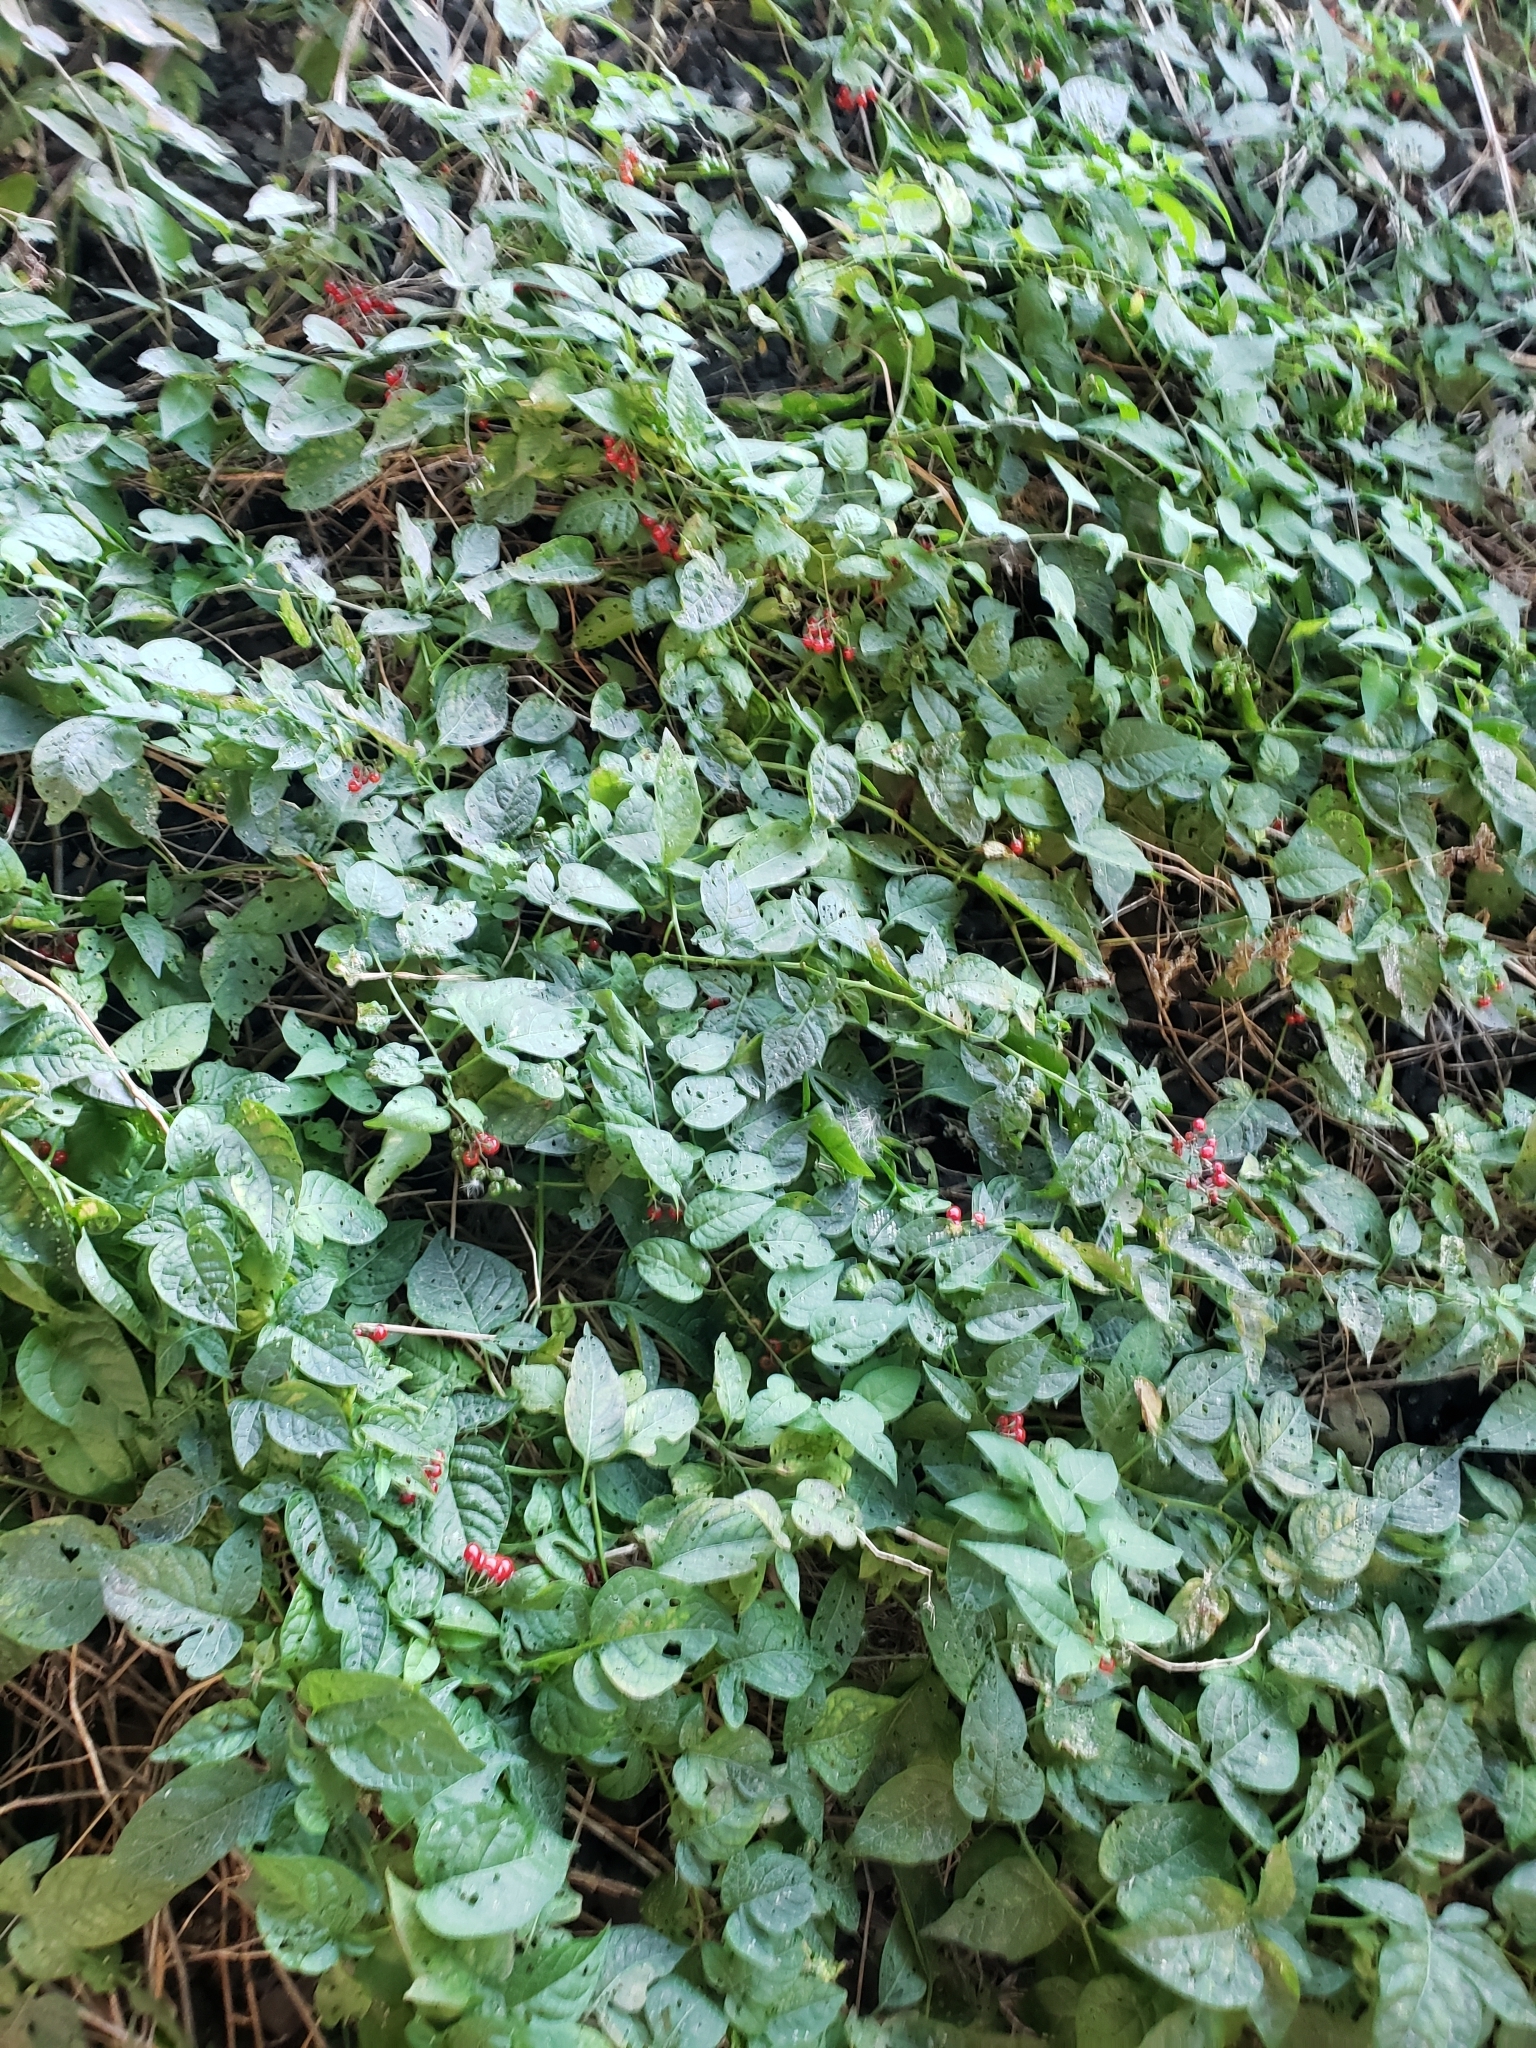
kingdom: Plantae
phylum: Tracheophyta
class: Magnoliopsida
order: Solanales
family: Solanaceae
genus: Solanum
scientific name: Solanum dulcamara
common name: Climbing nightshade
